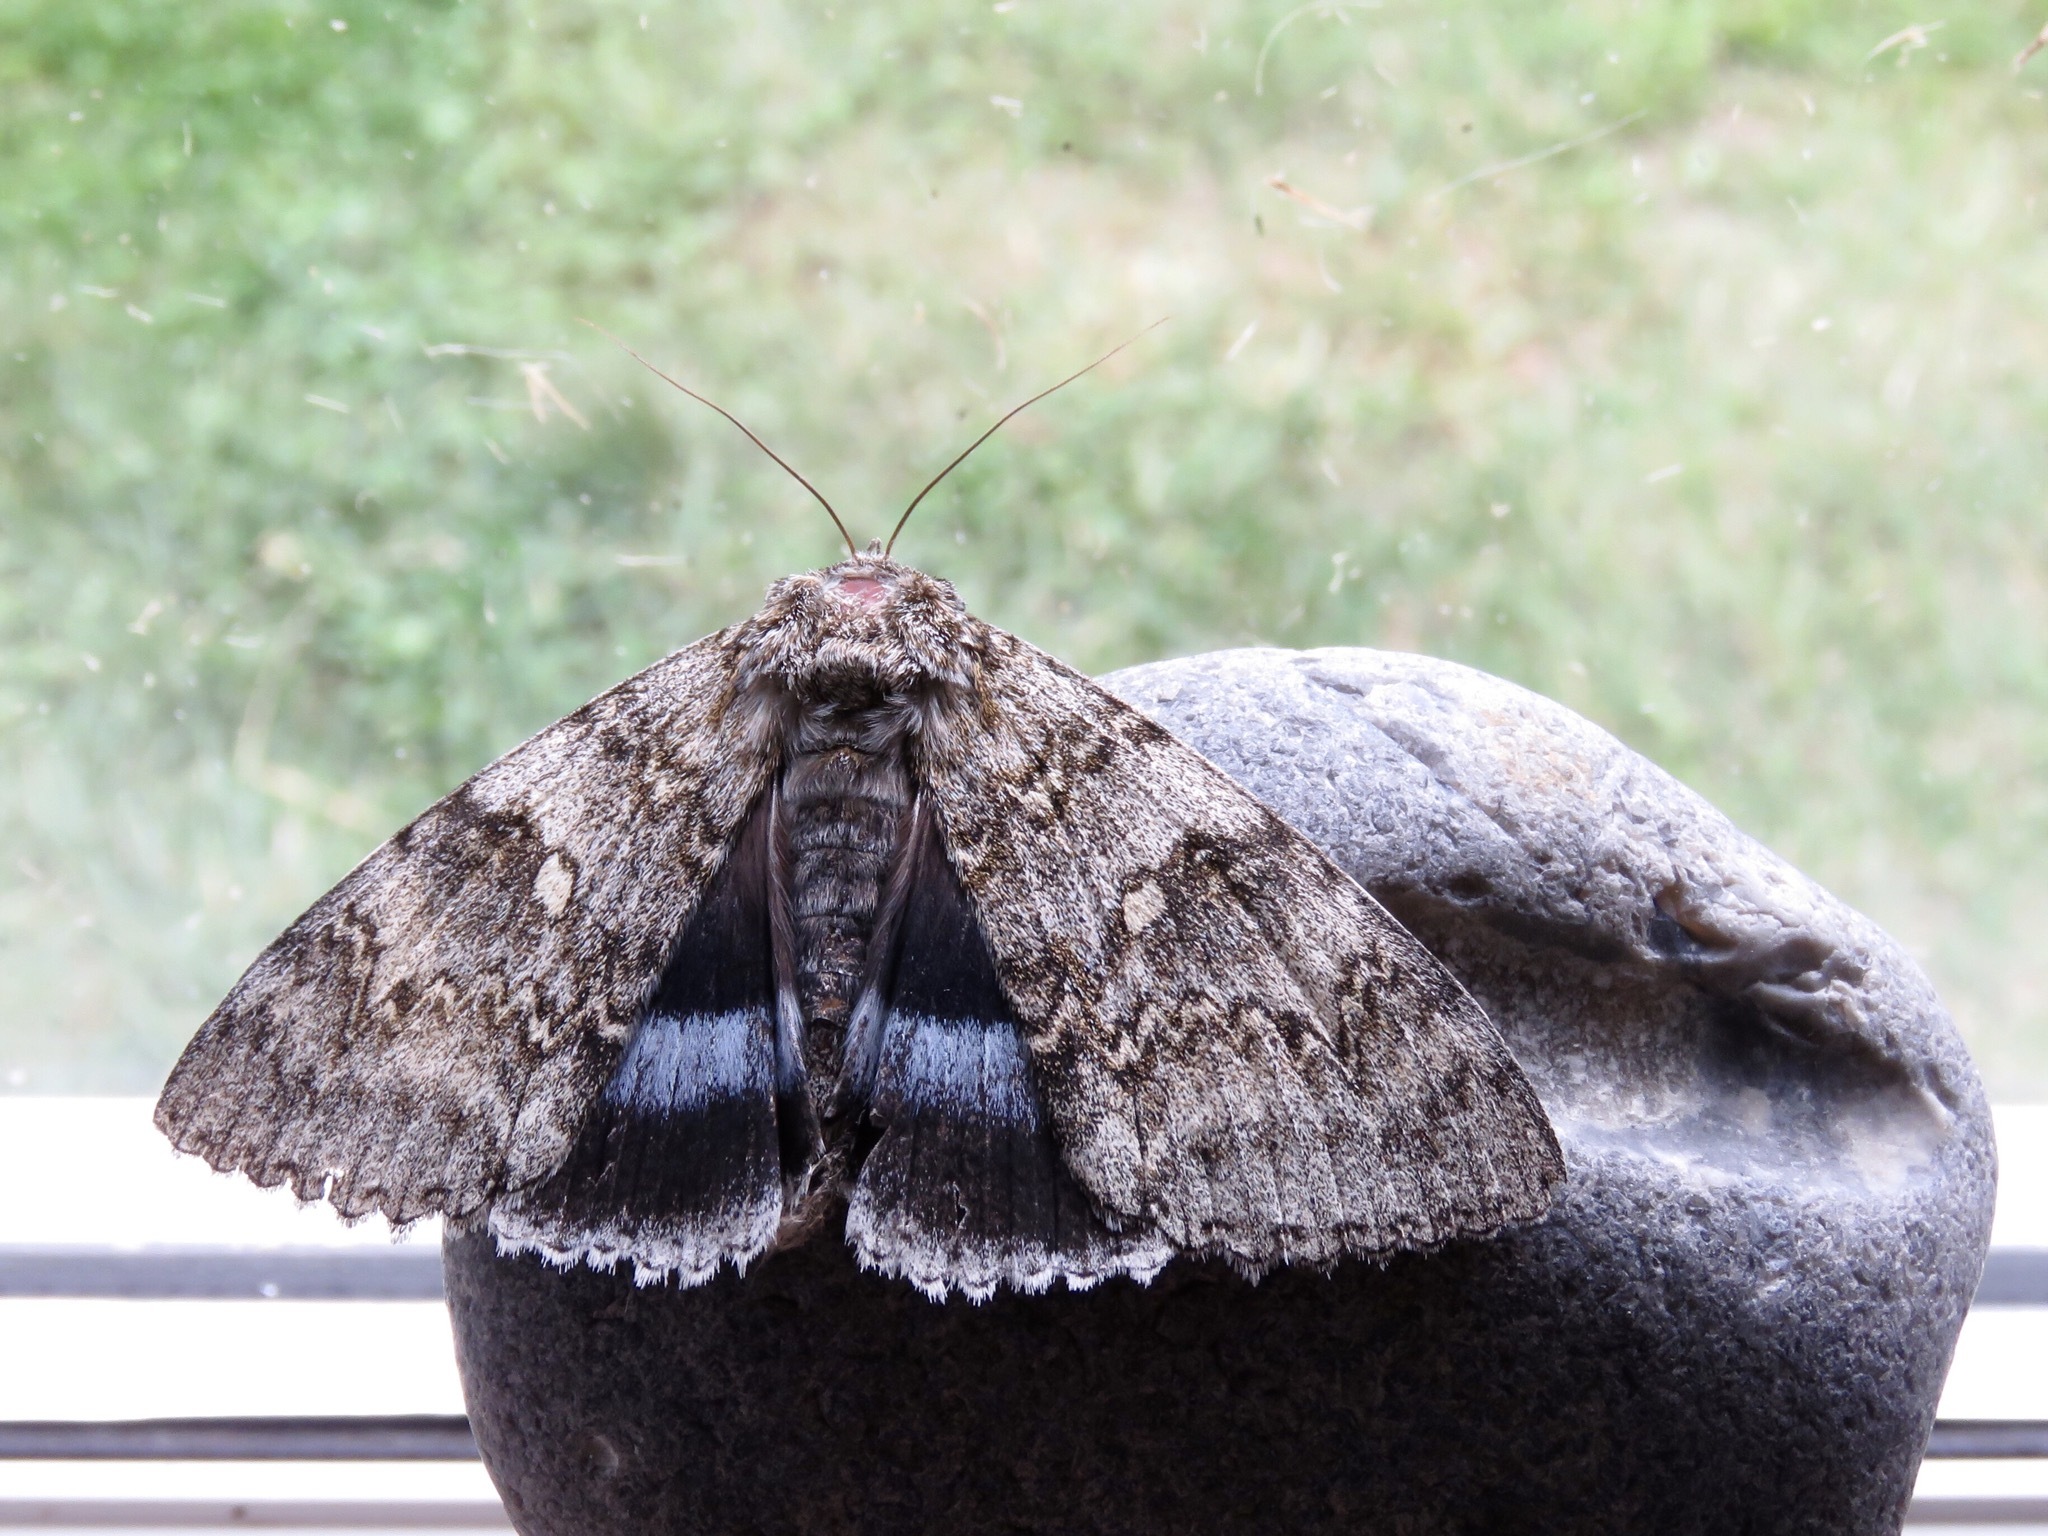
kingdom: Animalia
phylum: Arthropoda
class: Insecta
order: Lepidoptera
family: Erebidae
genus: Catocala
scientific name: Catocala fraxini
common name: Clifden nonpareil
